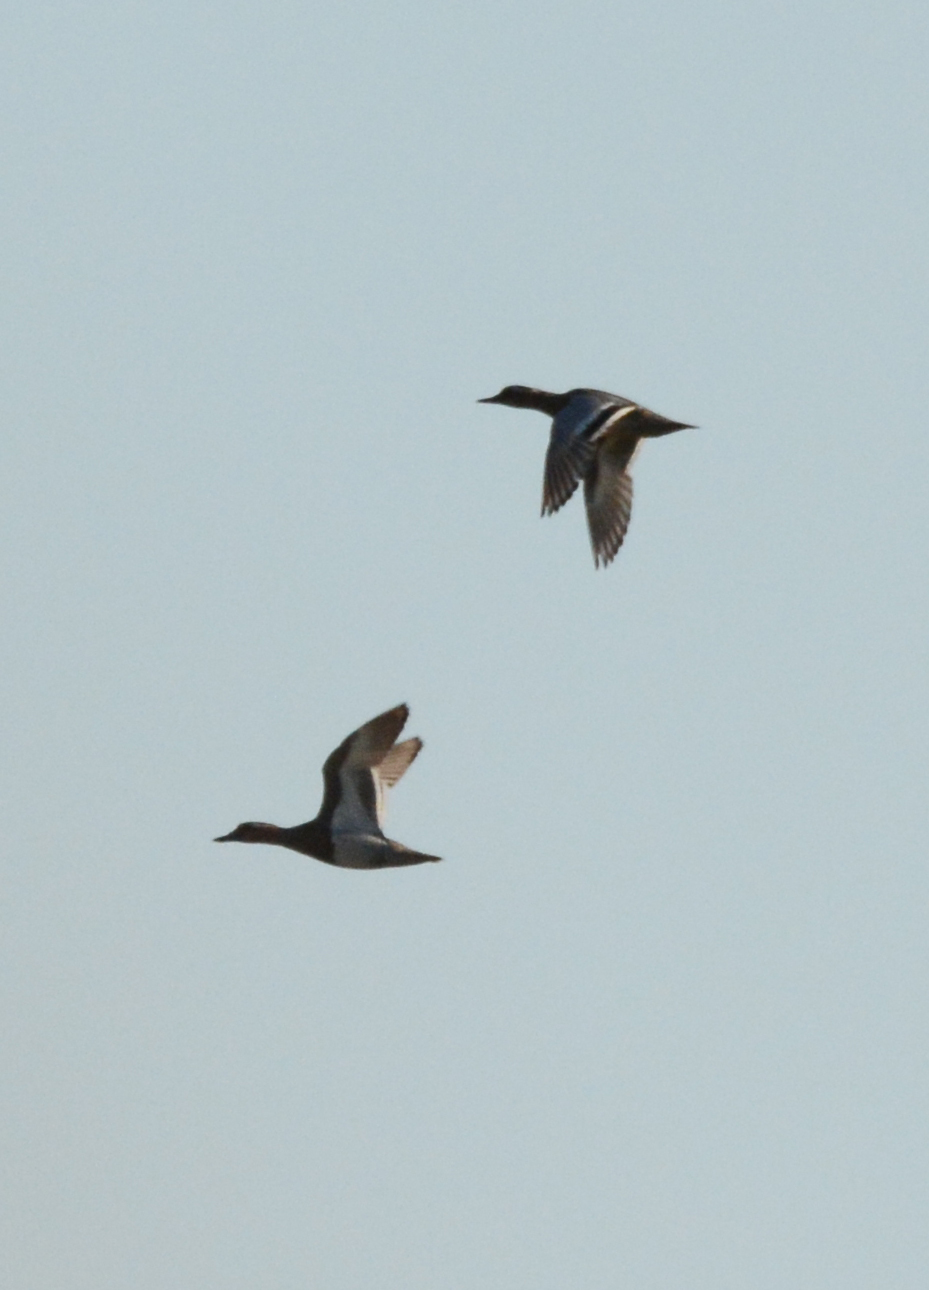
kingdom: Animalia
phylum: Chordata
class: Aves
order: Anseriformes
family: Anatidae
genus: Spatula
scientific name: Spatula querquedula
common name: Garganey
